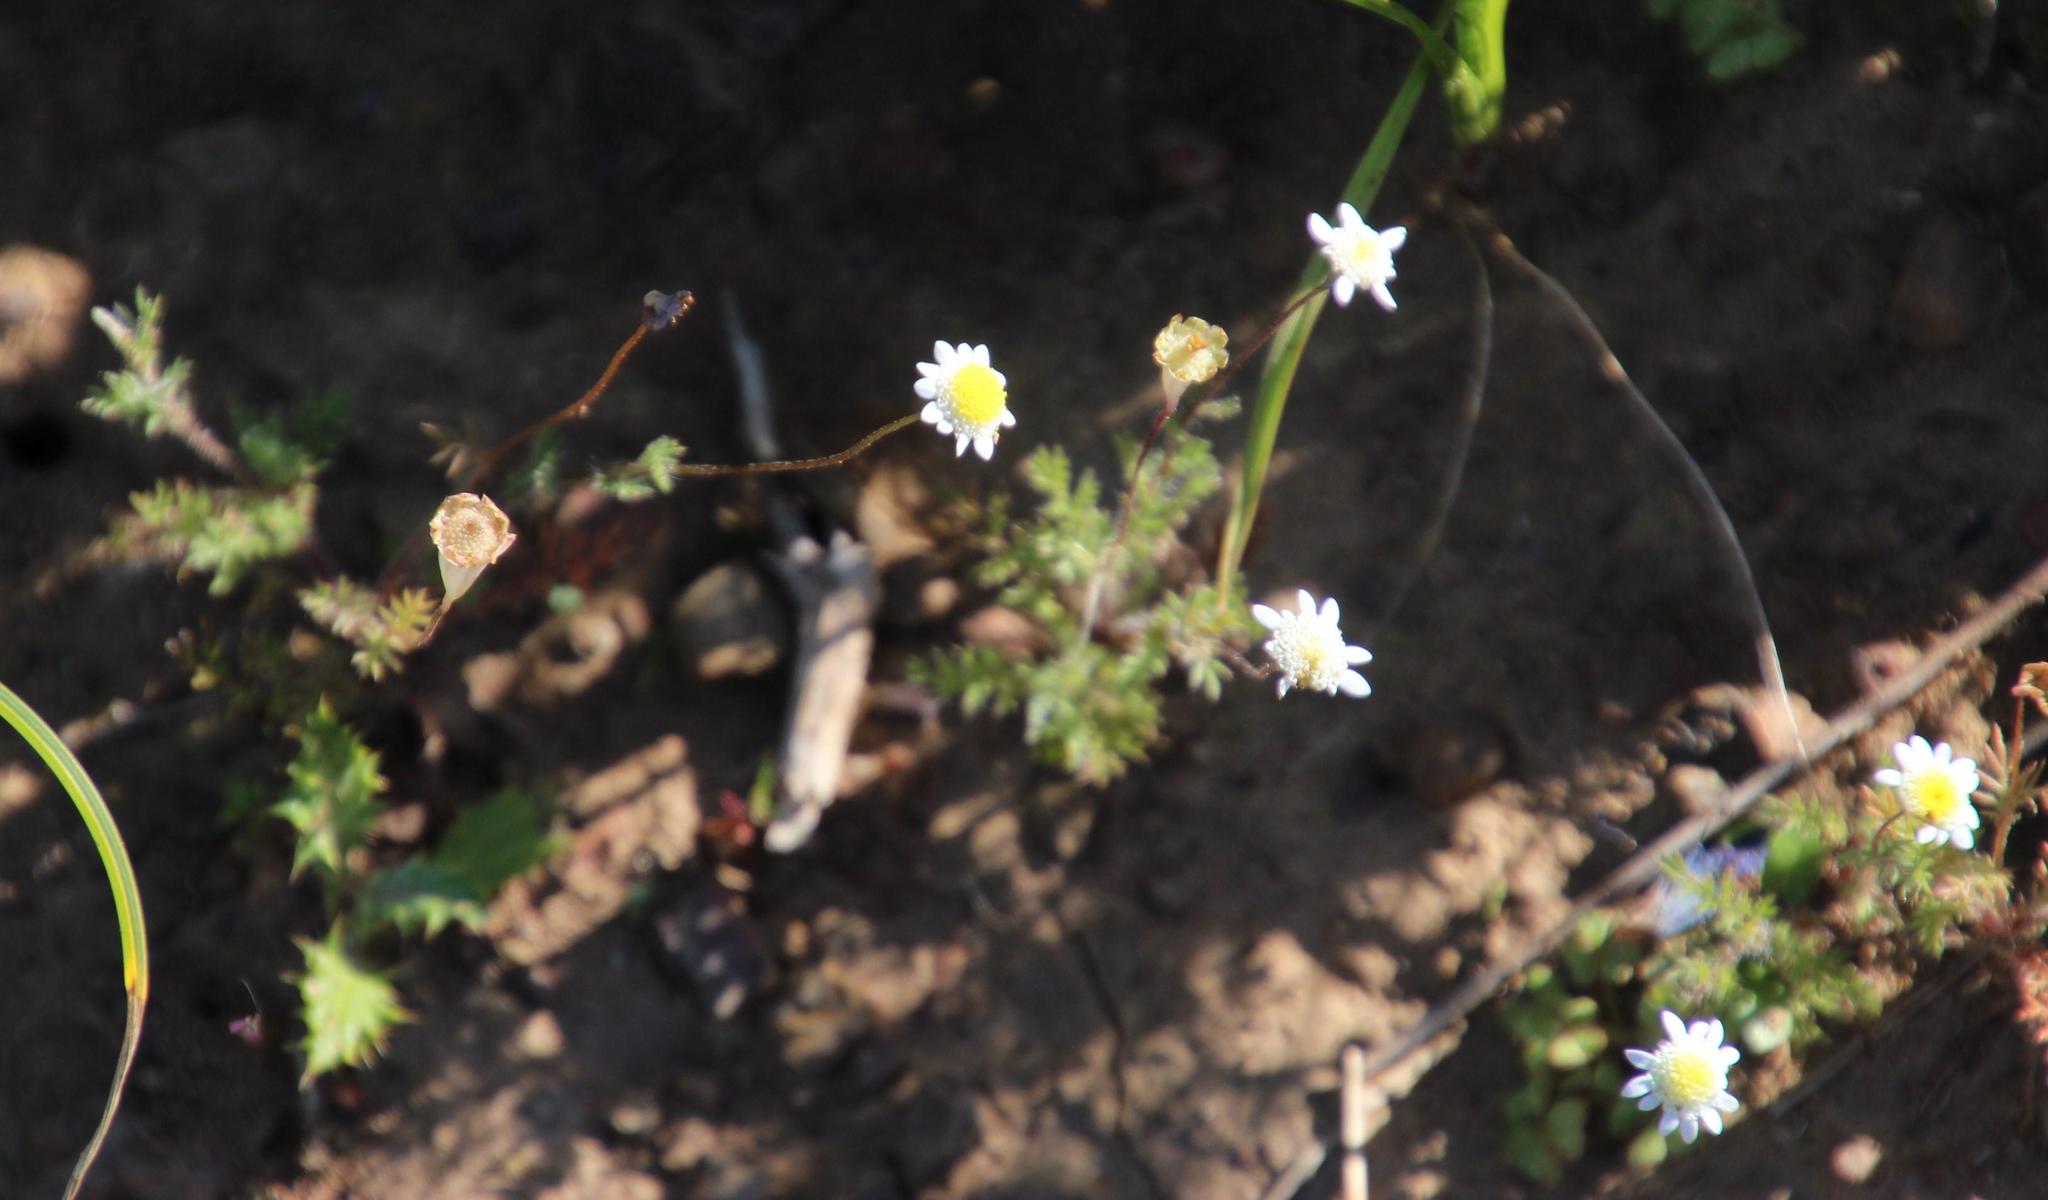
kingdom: Plantae
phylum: Tracheophyta
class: Magnoliopsida
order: Asterales
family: Asteraceae
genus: Cotula
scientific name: Cotula turbinata
